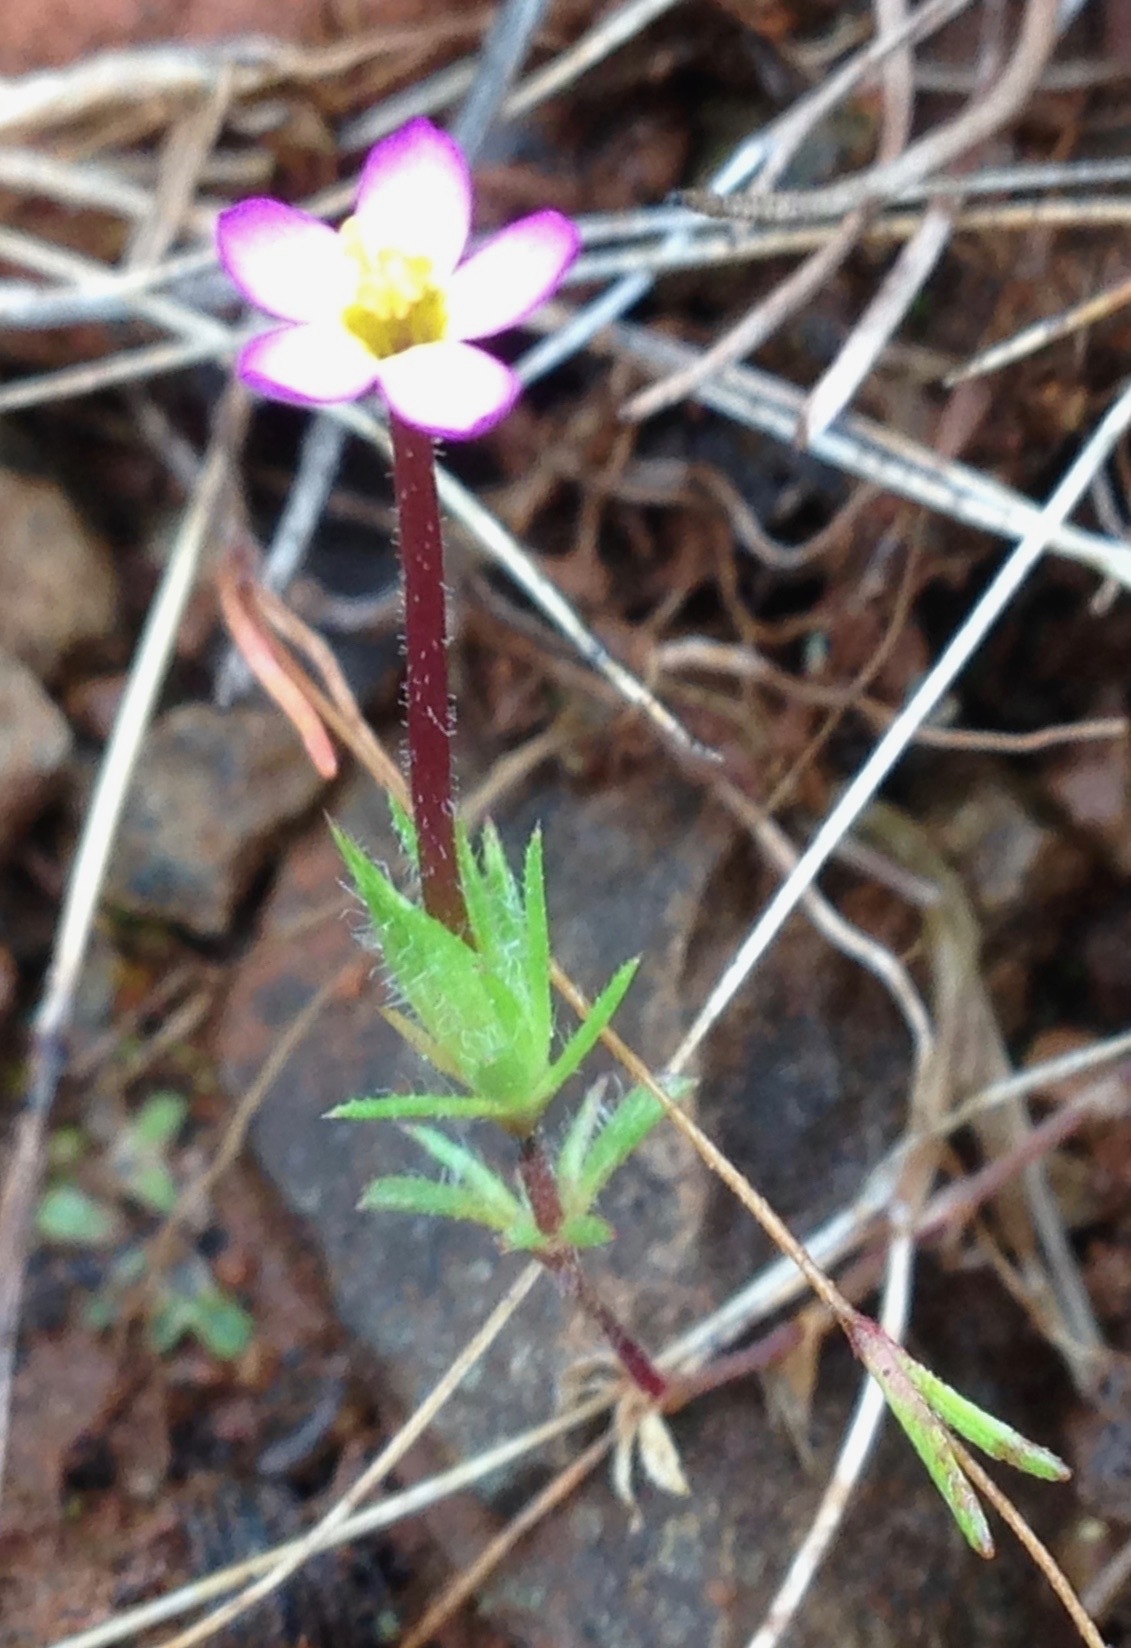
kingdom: Plantae
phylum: Tracheophyta
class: Magnoliopsida
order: Ericales
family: Polemoniaceae
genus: Leptosiphon
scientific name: Leptosiphon bicolor
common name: True babystars
